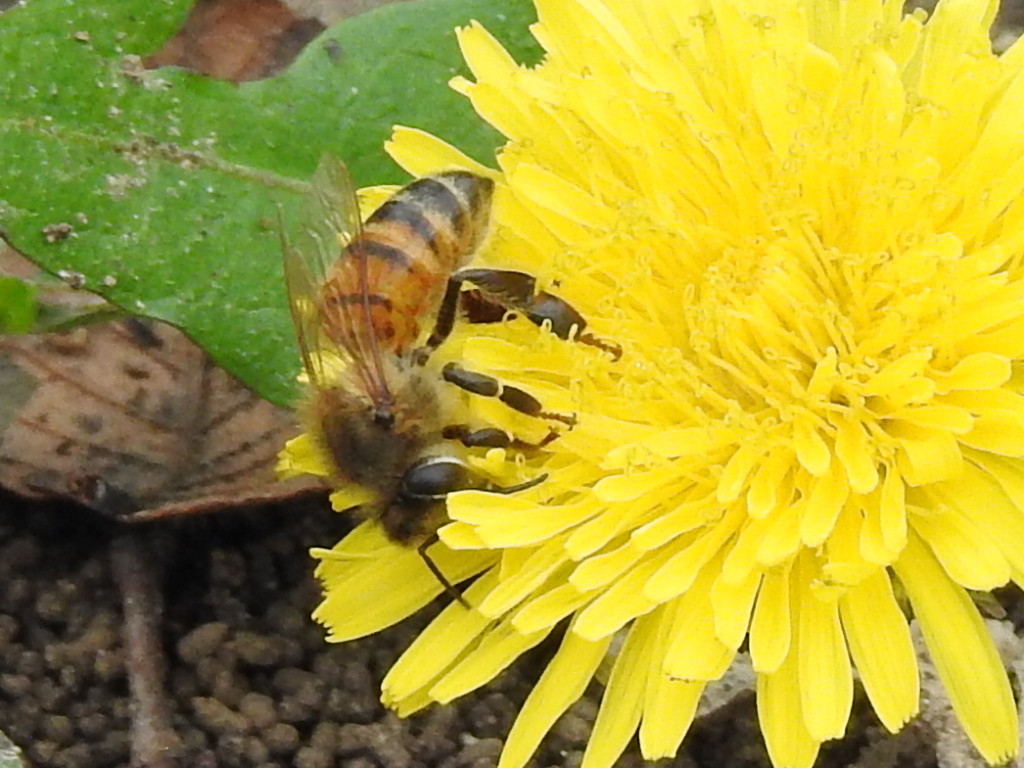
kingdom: Animalia
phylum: Arthropoda
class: Insecta
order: Hymenoptera
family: Apidae
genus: Apis
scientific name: Apis mellifera
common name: Honey bee
